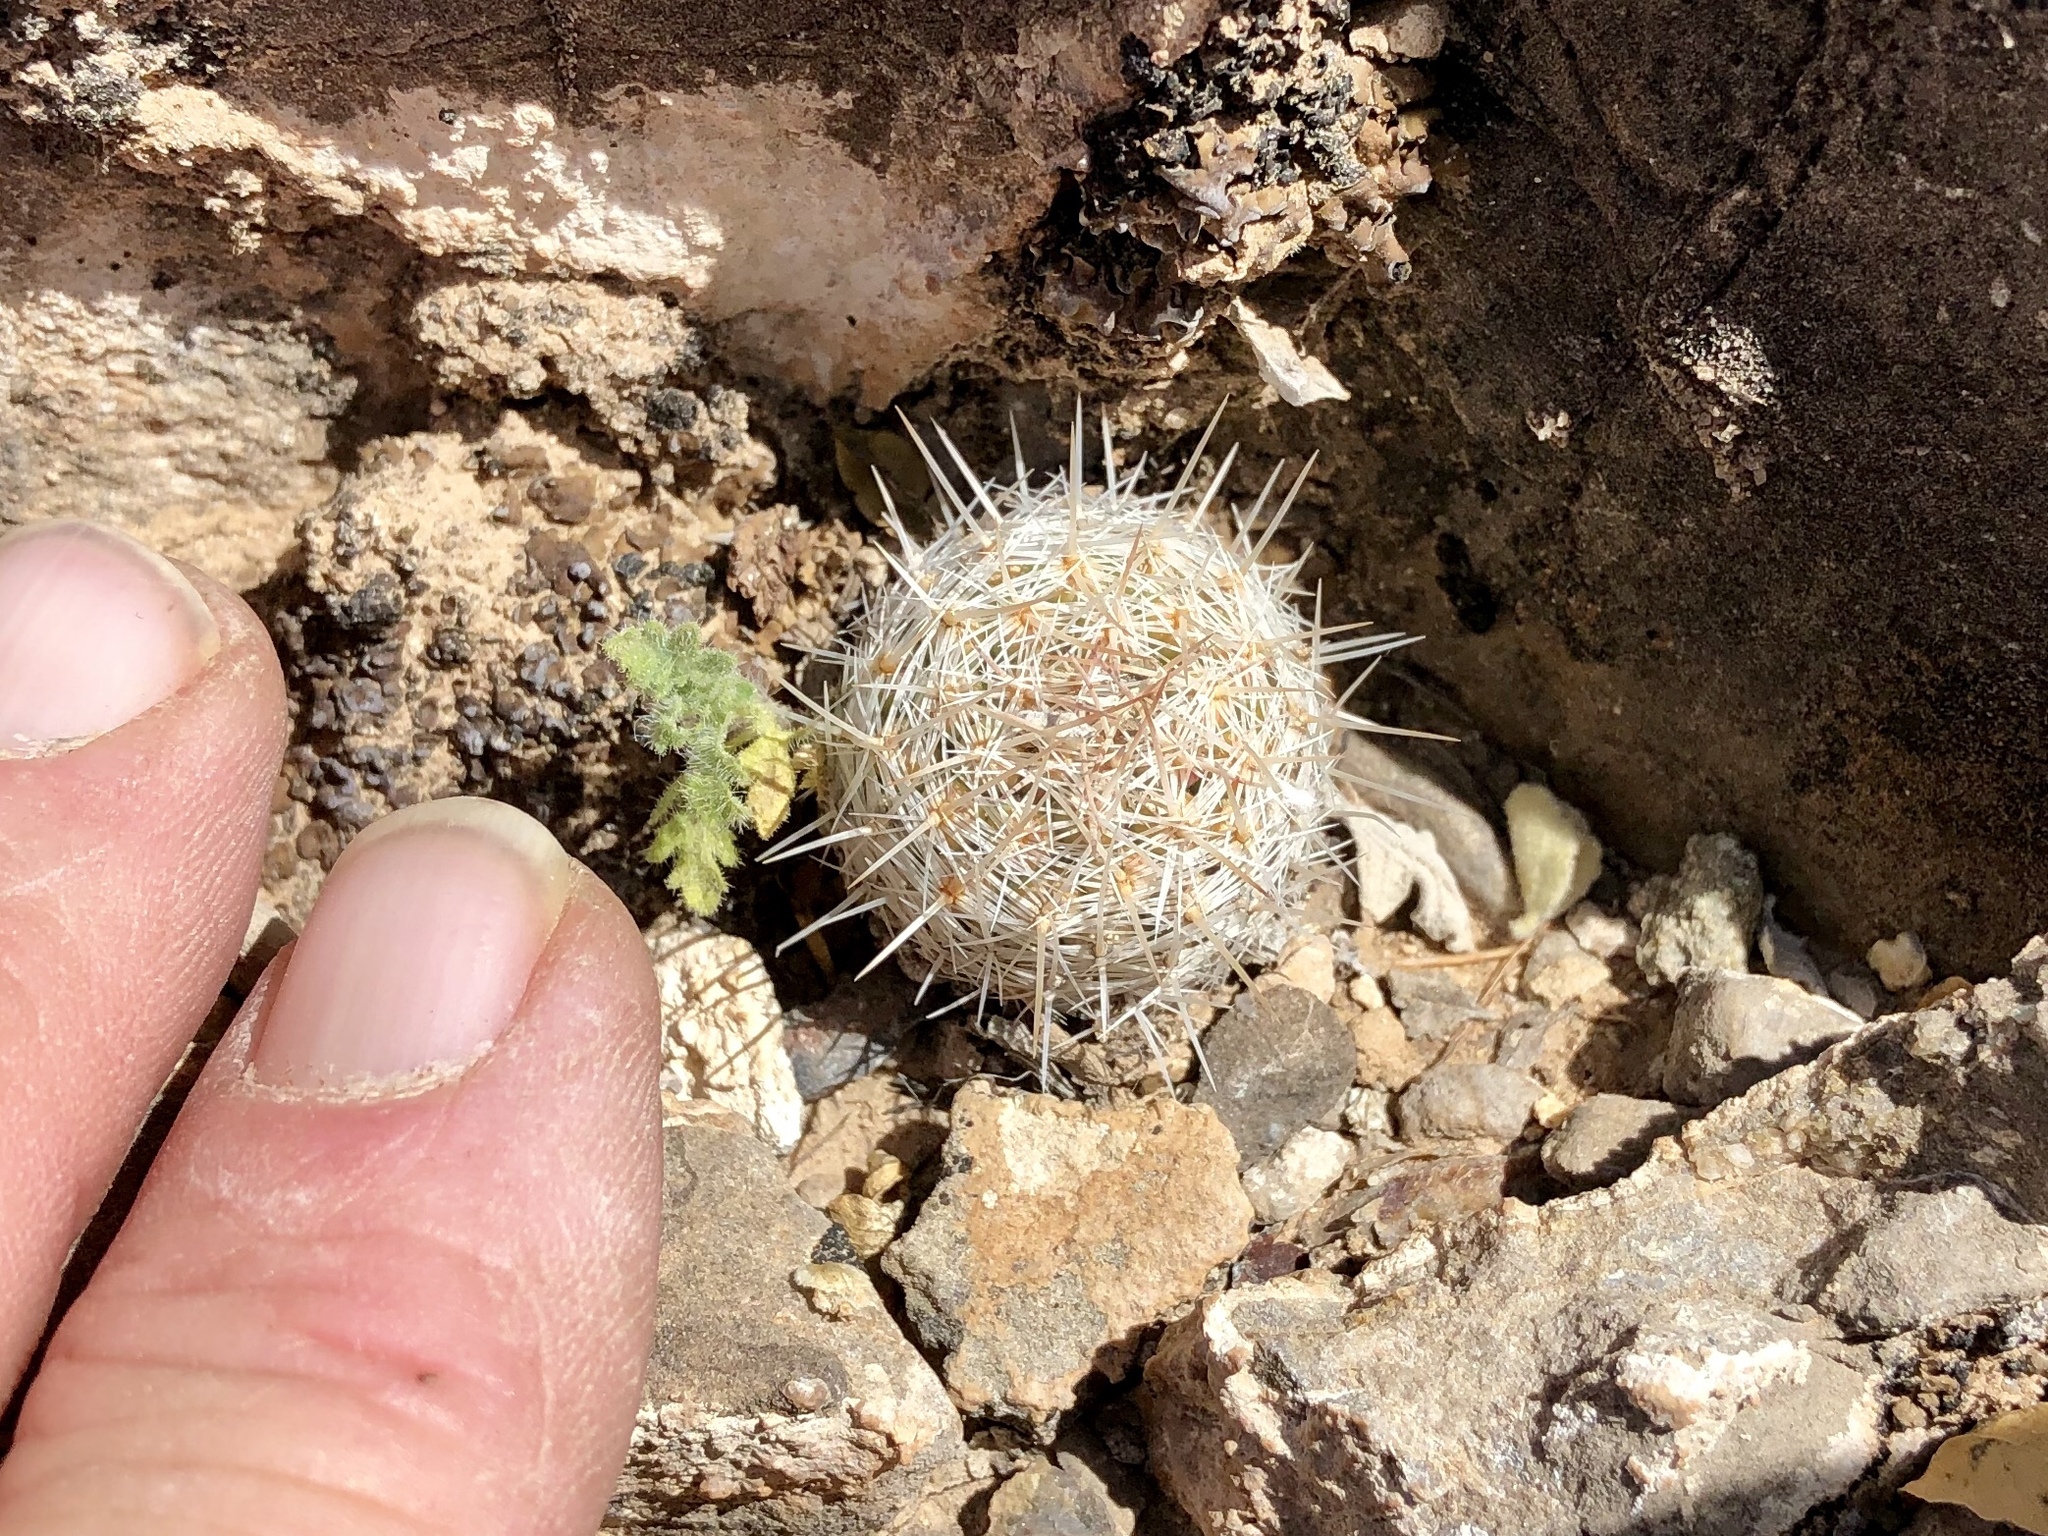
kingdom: Plantae
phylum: Tracheophyta
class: Magnoliopsida
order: Caryophyllales
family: Cactaceae
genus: Pelecyphora
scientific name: Pelecyphora tuberculosa
